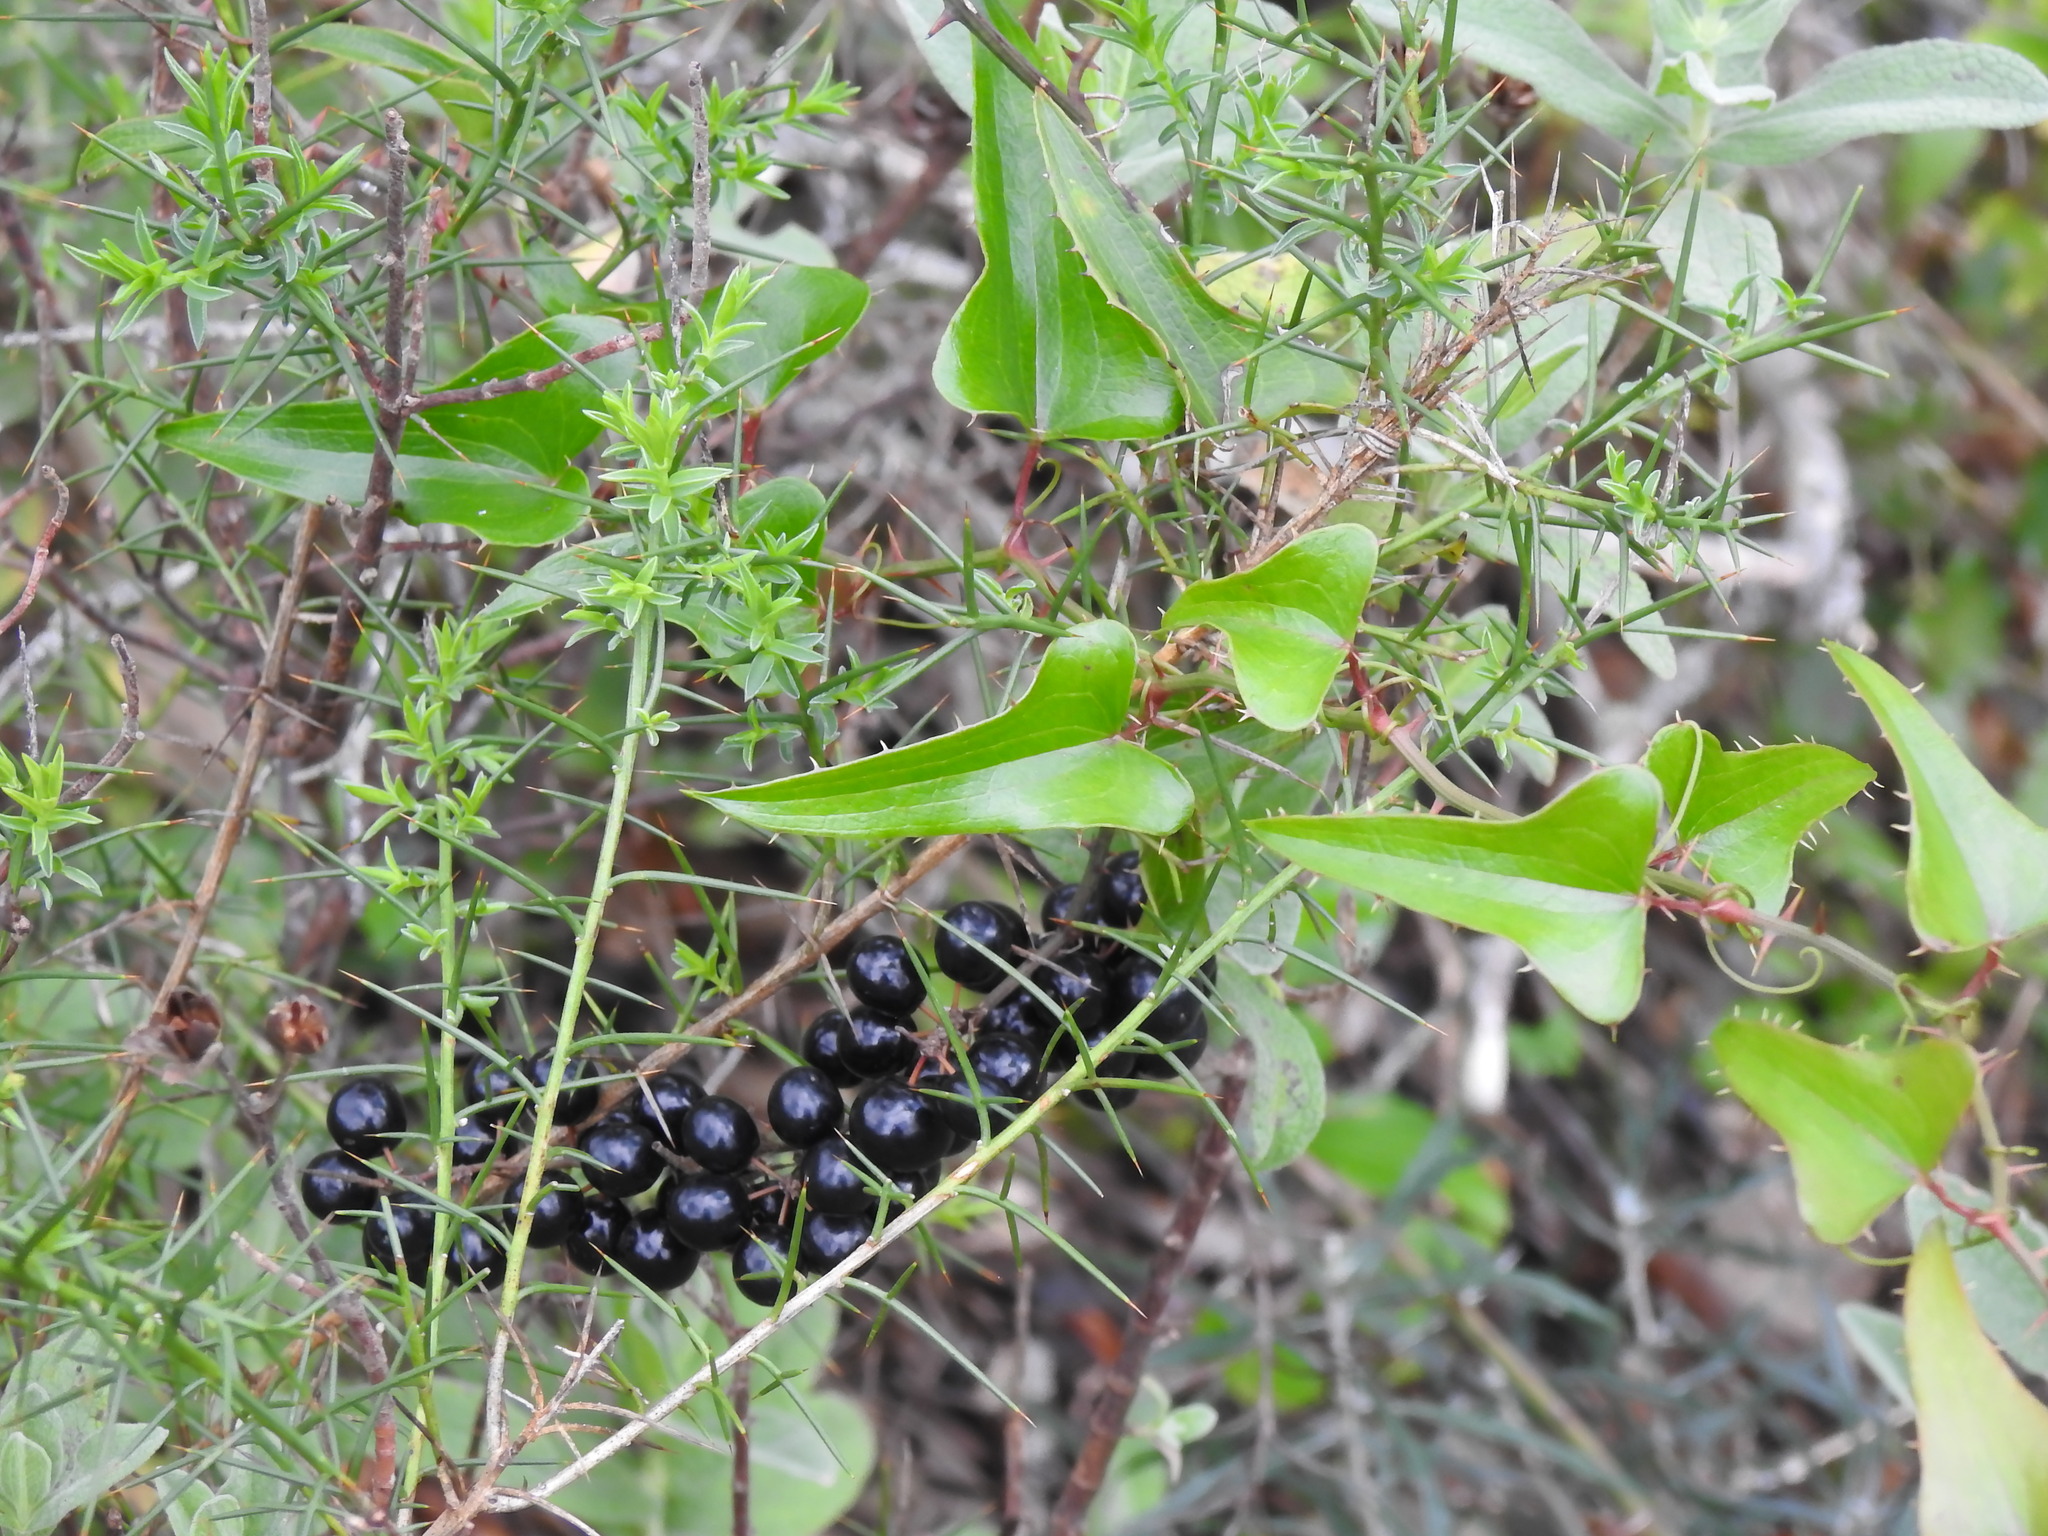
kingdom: Plantae
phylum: Tracheophyta
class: Liliopsida
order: Liliales
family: Smilacaceae
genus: Smilax
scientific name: Smilax aspera
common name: Common smilax
